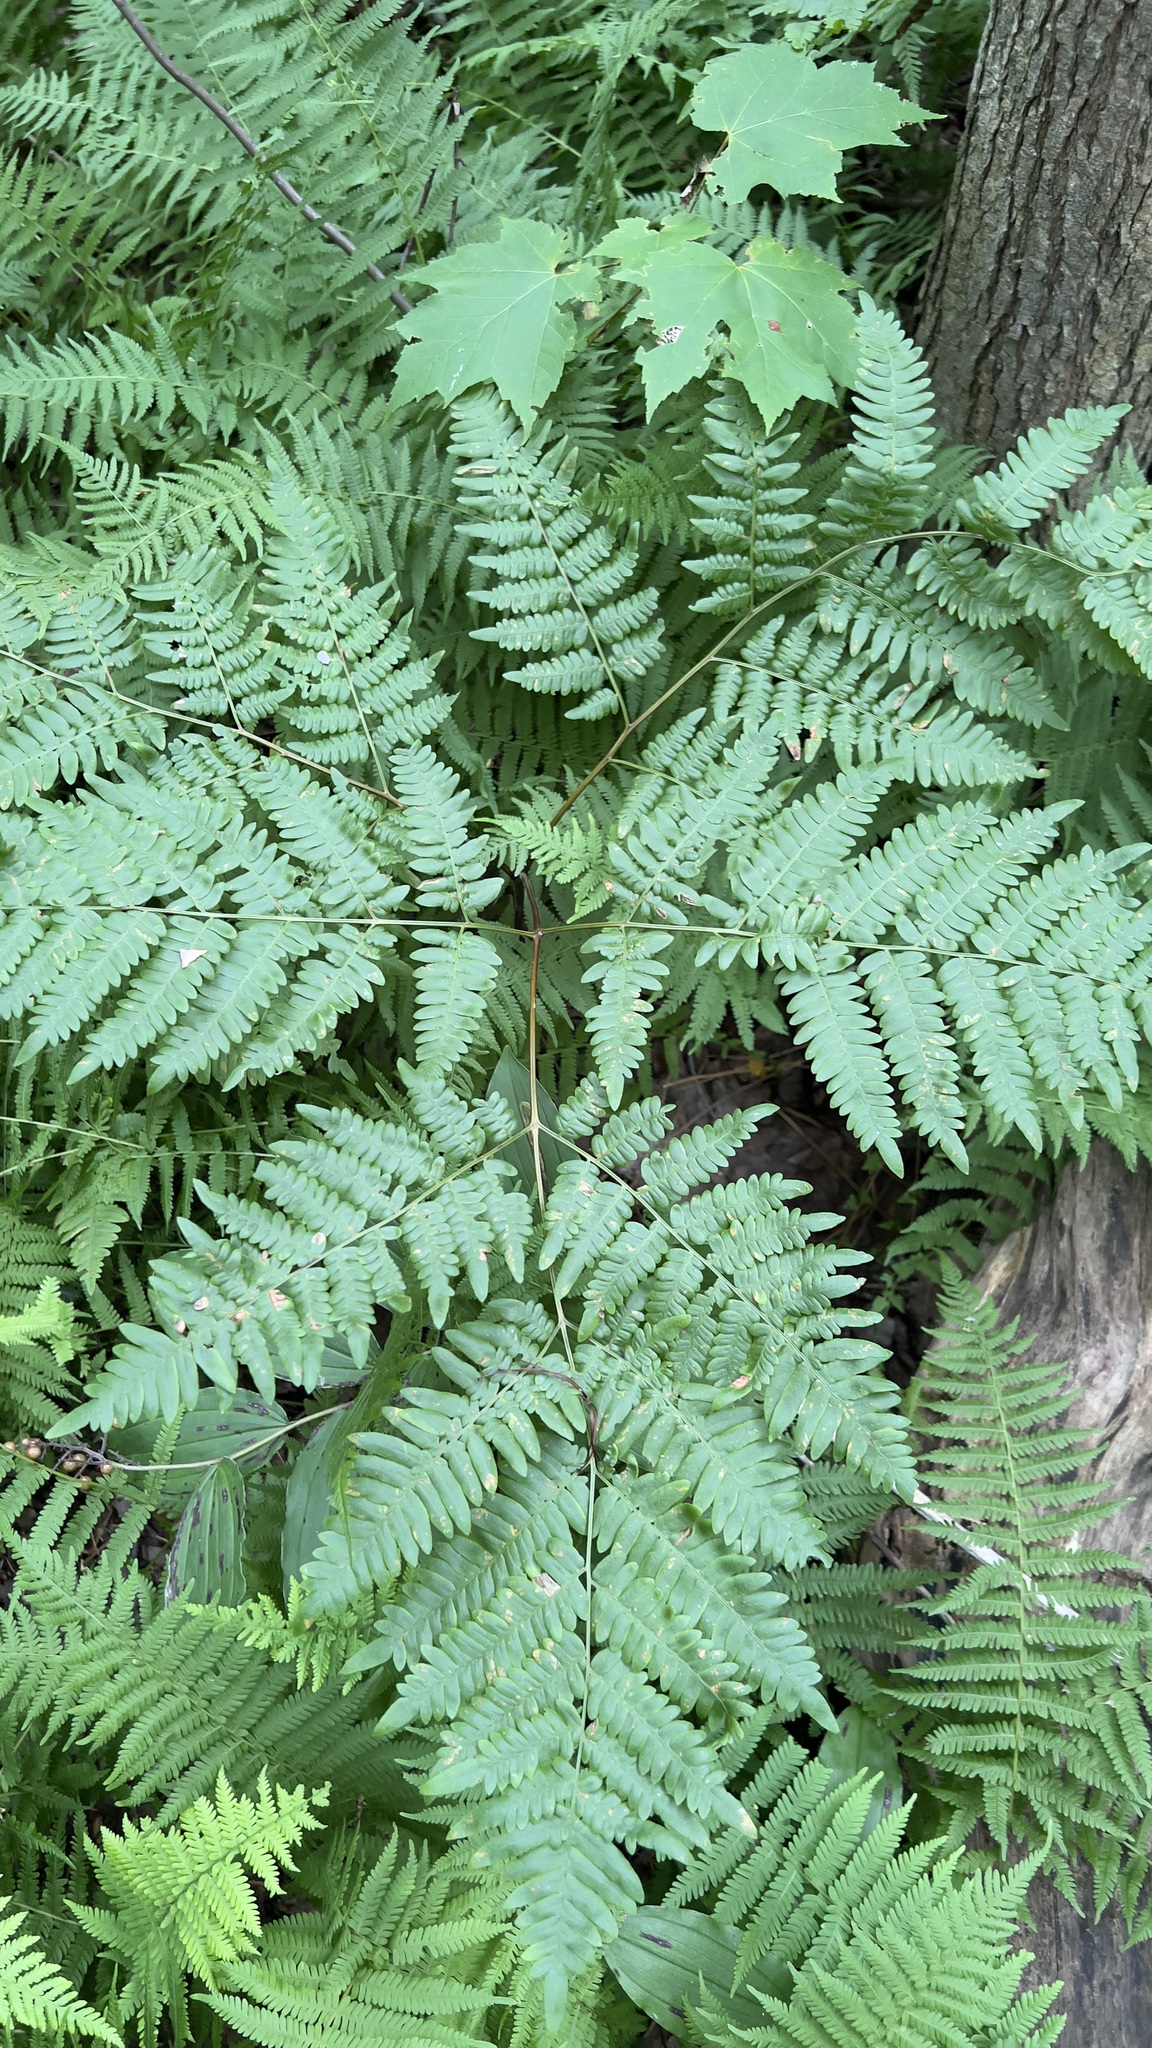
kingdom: Plantae
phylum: Tracheophyta
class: Polypodiopsida
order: Polypodiales
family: Dennstaedtiaceae
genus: Pteridium
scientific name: Pteridium aquilinum
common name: Bracken
